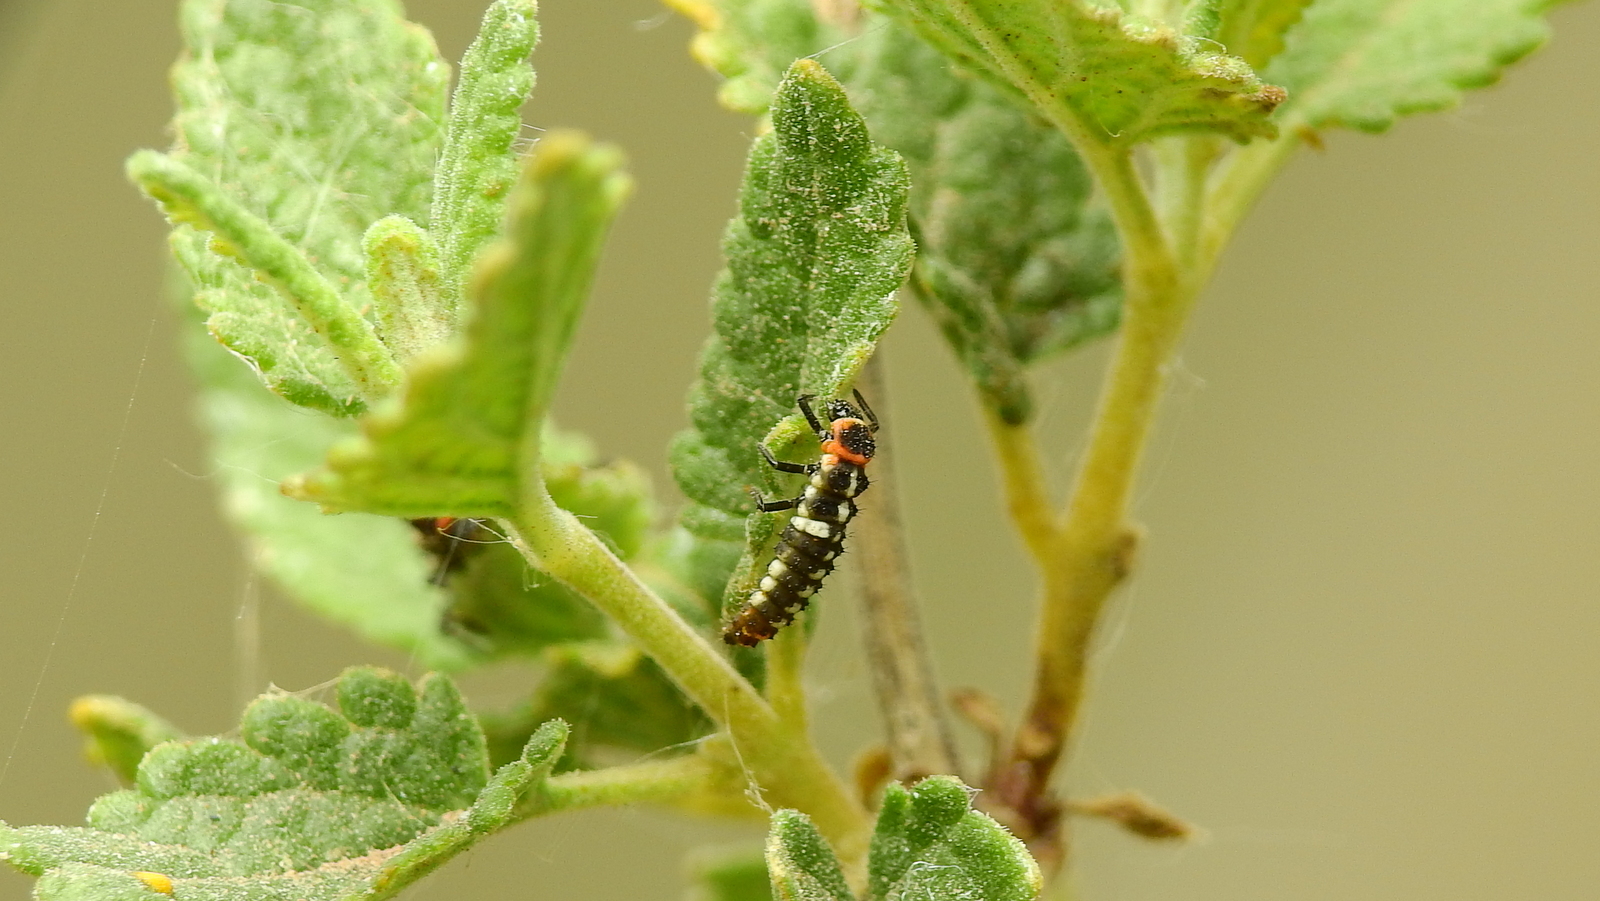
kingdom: Animalia
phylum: Arthropoda
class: Insecta
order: Coleoptera
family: Coccinellidae
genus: Eriopis
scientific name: Eriopis connexa
